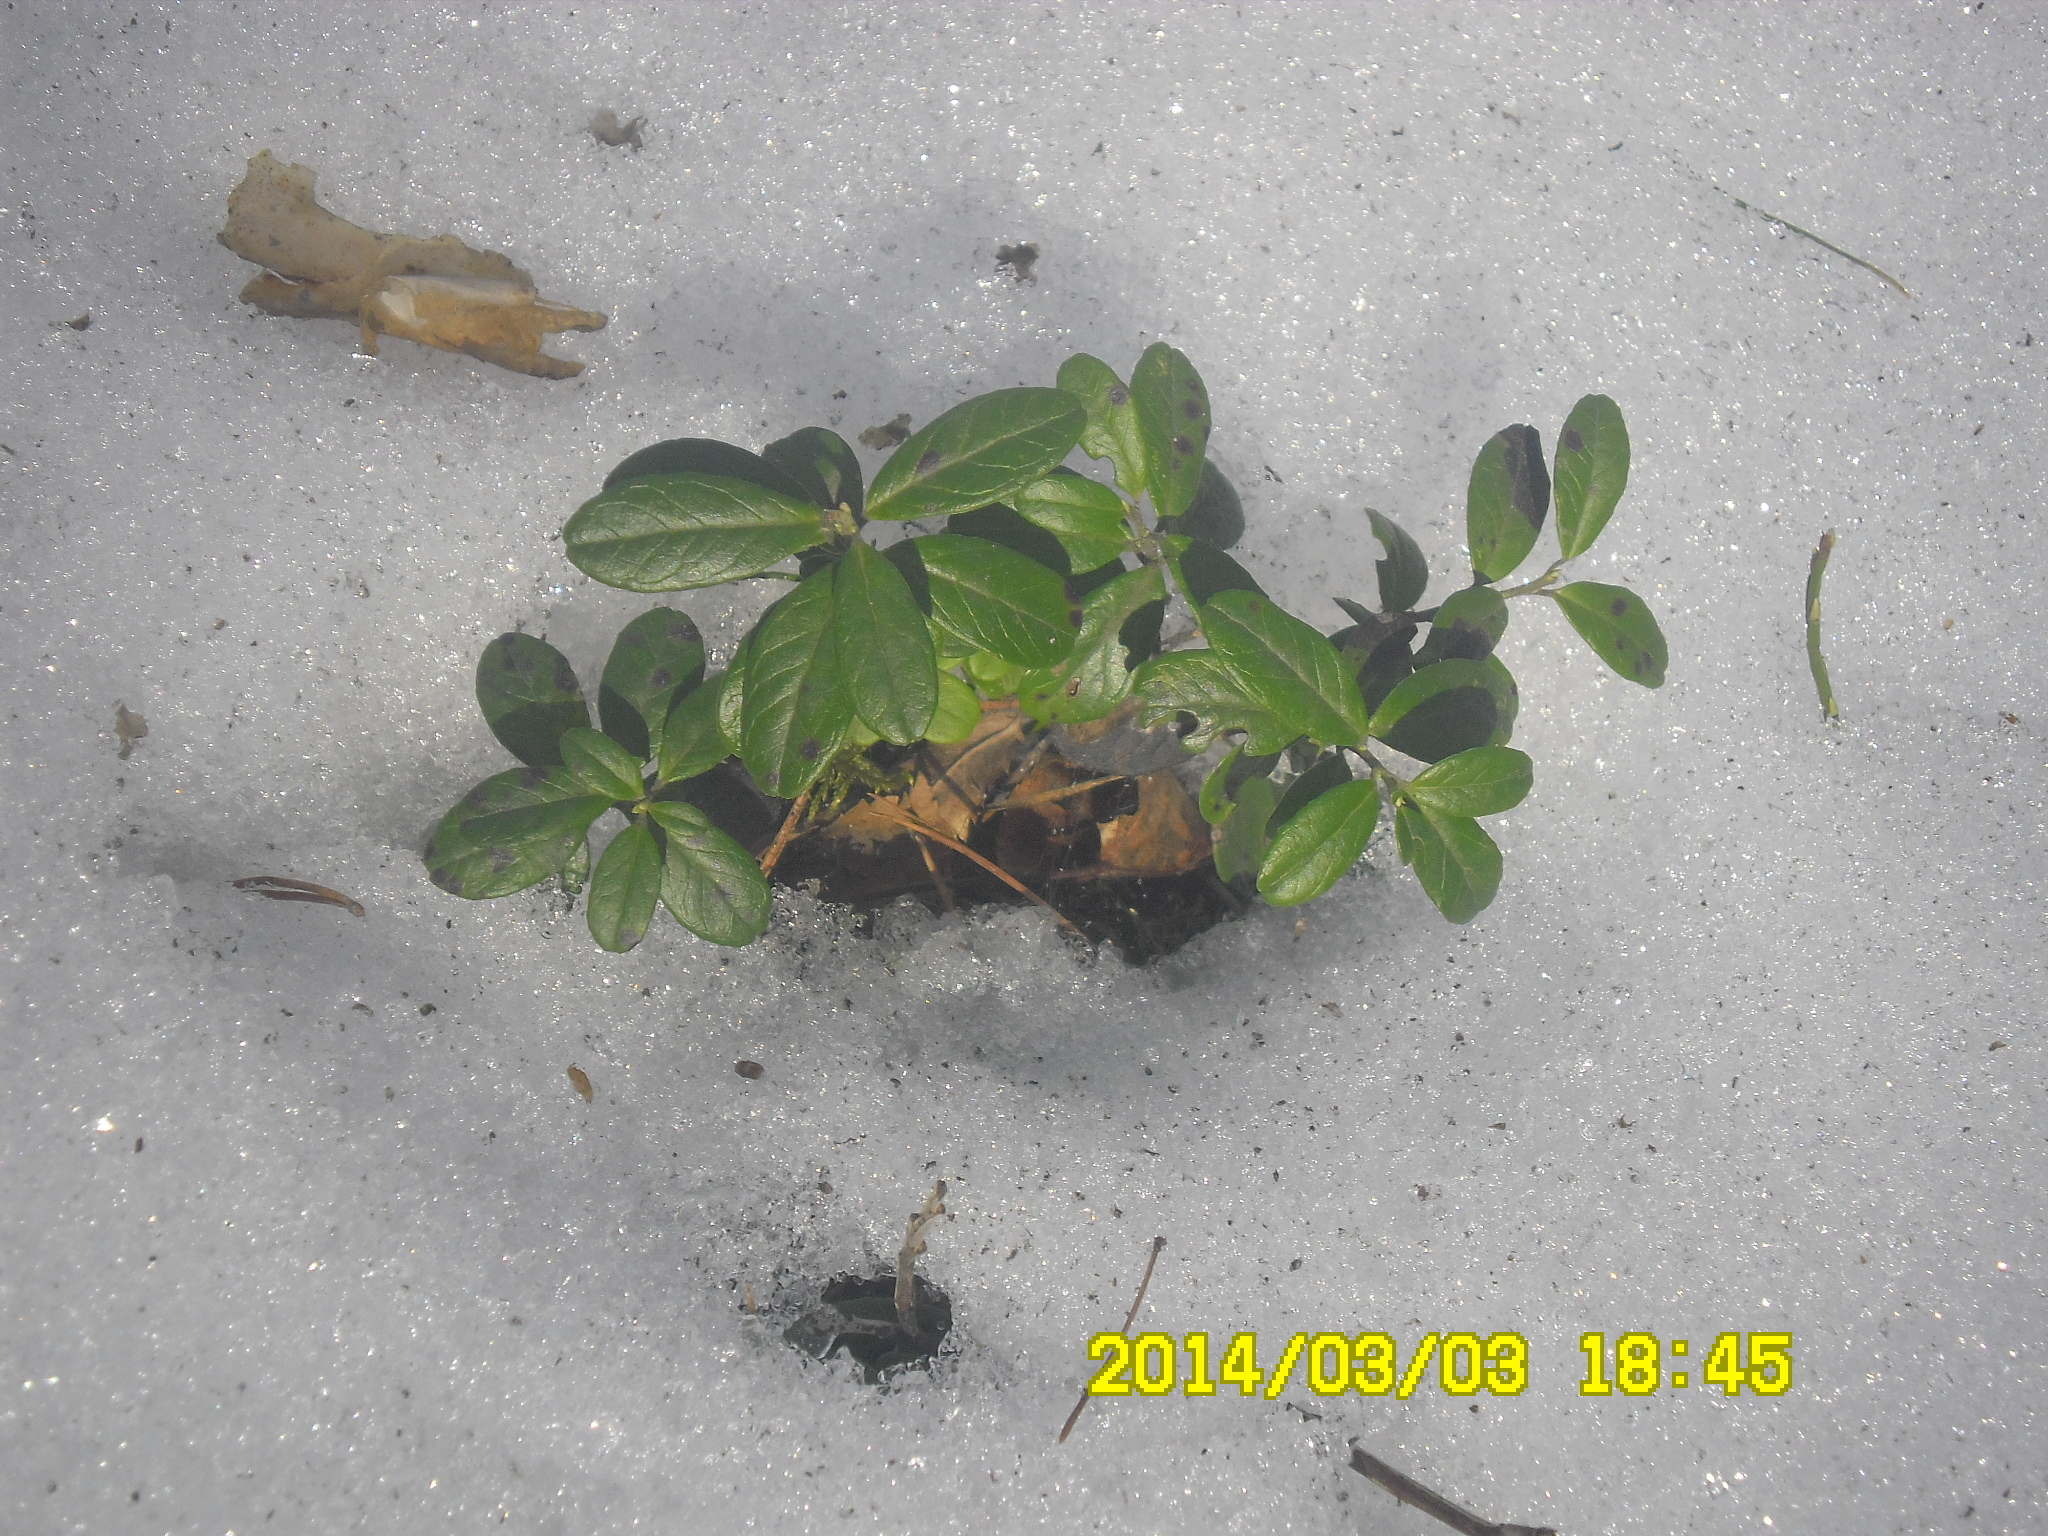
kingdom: Plantae
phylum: Tracheophyta
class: Magnoliopsida
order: Ericales
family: Ericaceae
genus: Vaccinium
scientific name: Vaccinium vitis-idaea
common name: Cowberry
